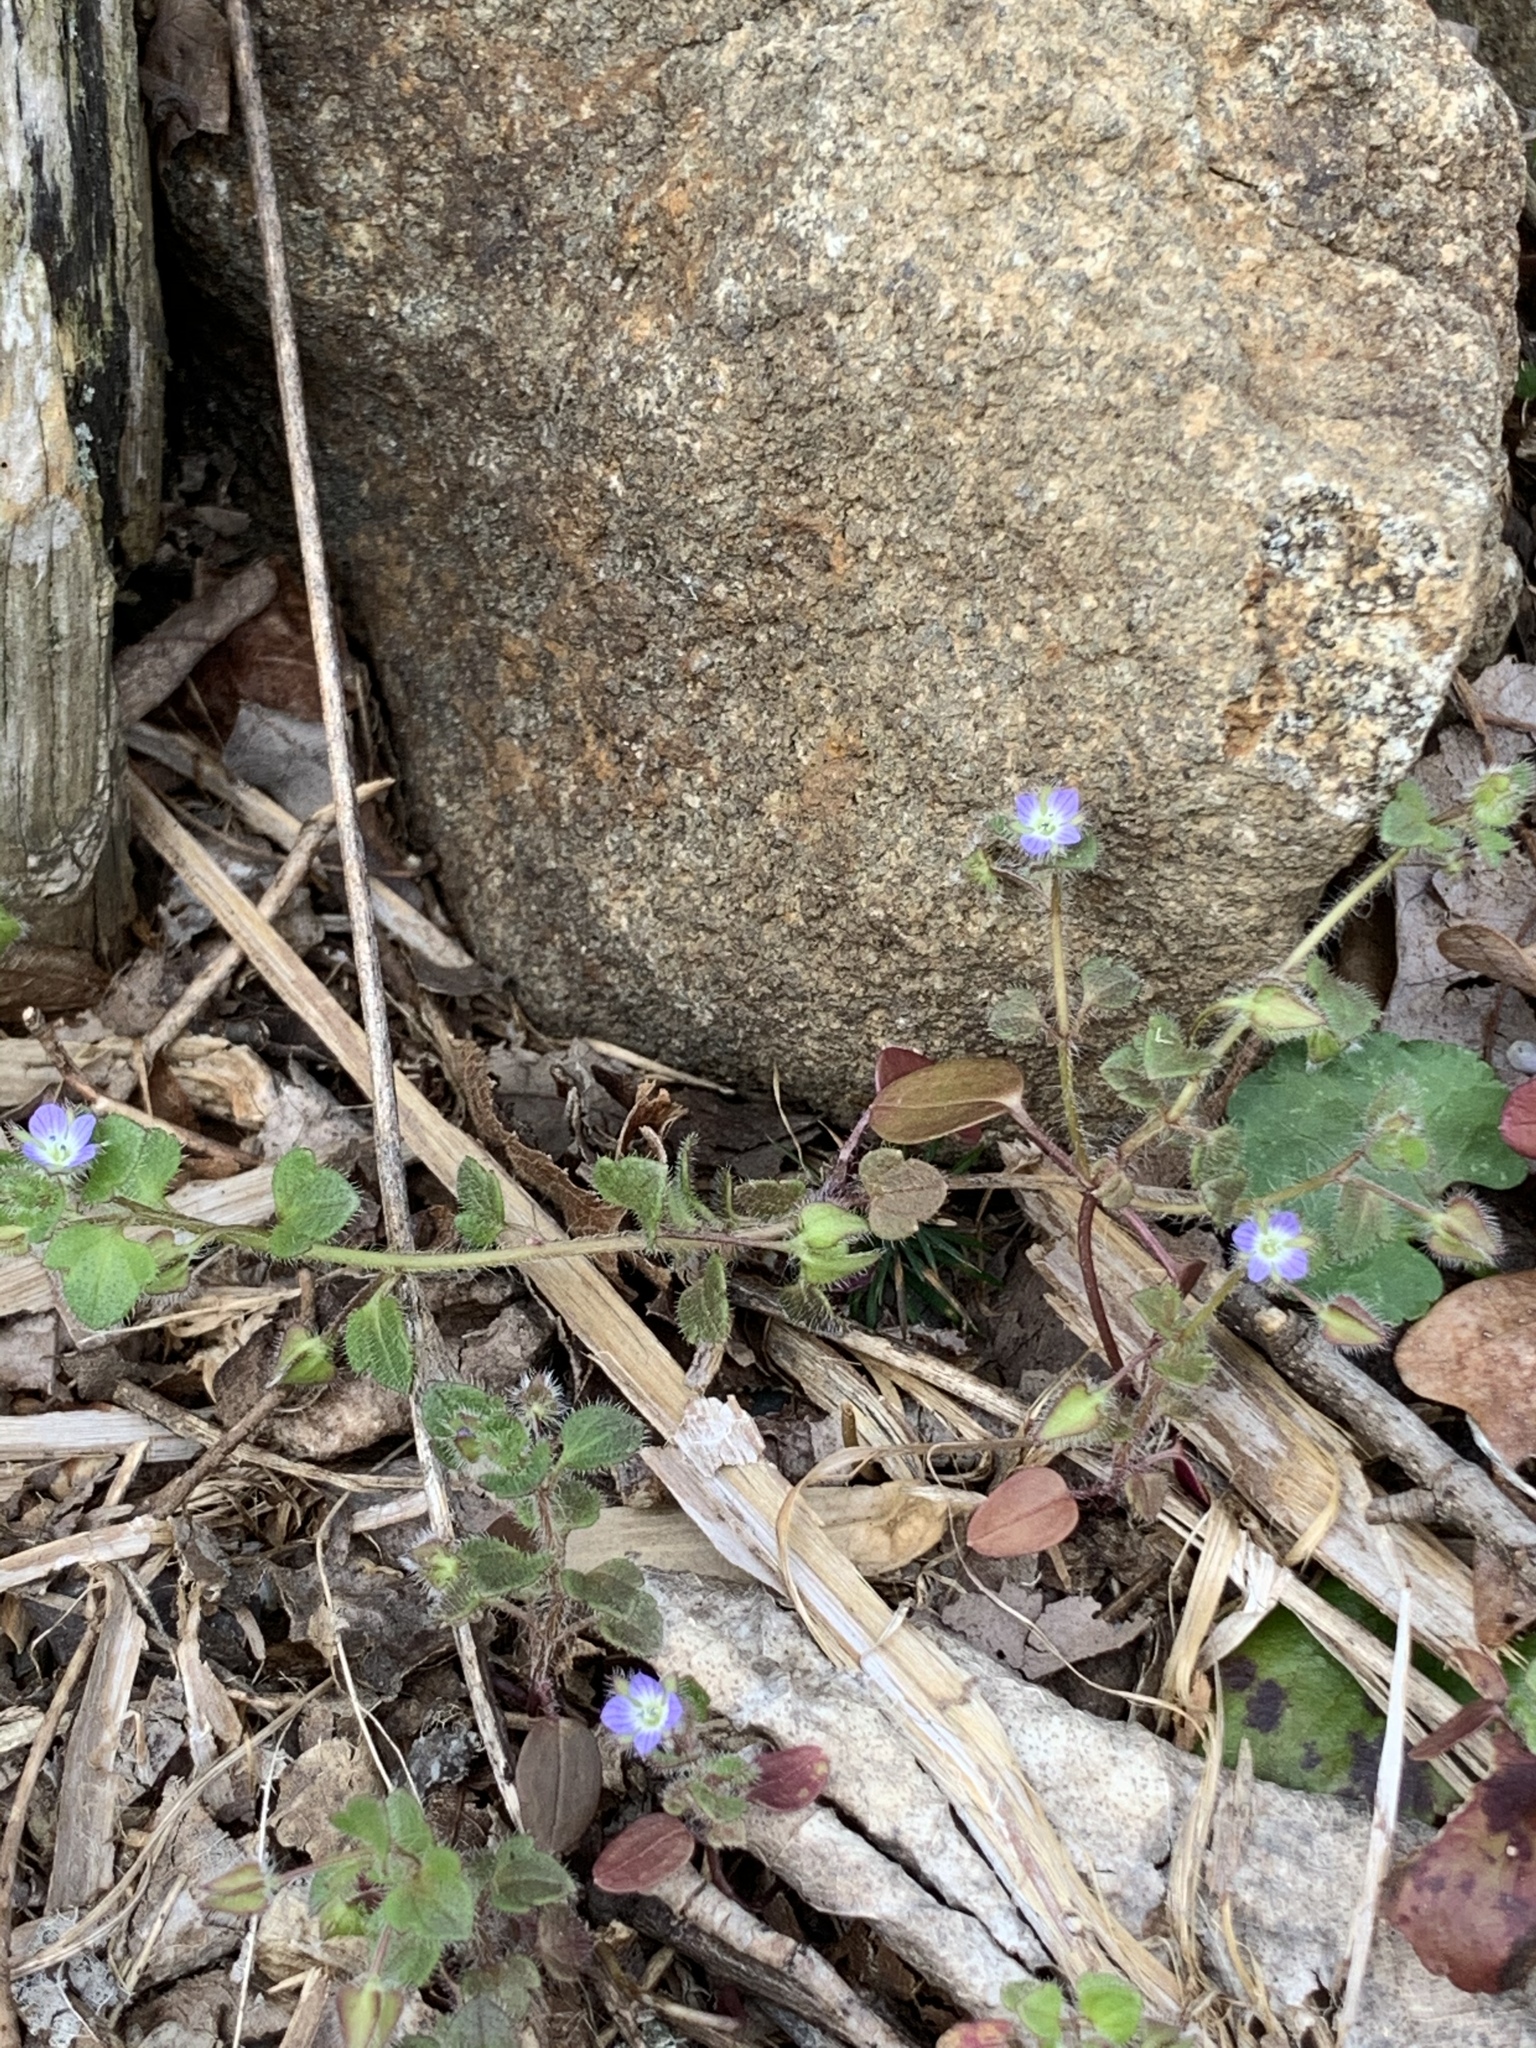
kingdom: Plantae
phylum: Tracheophyta
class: Magnoliopsida
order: Lamiales
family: Plantaginaceae
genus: Veronica
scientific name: Veronica hederifolia
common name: Ivy-leaved speedwell
